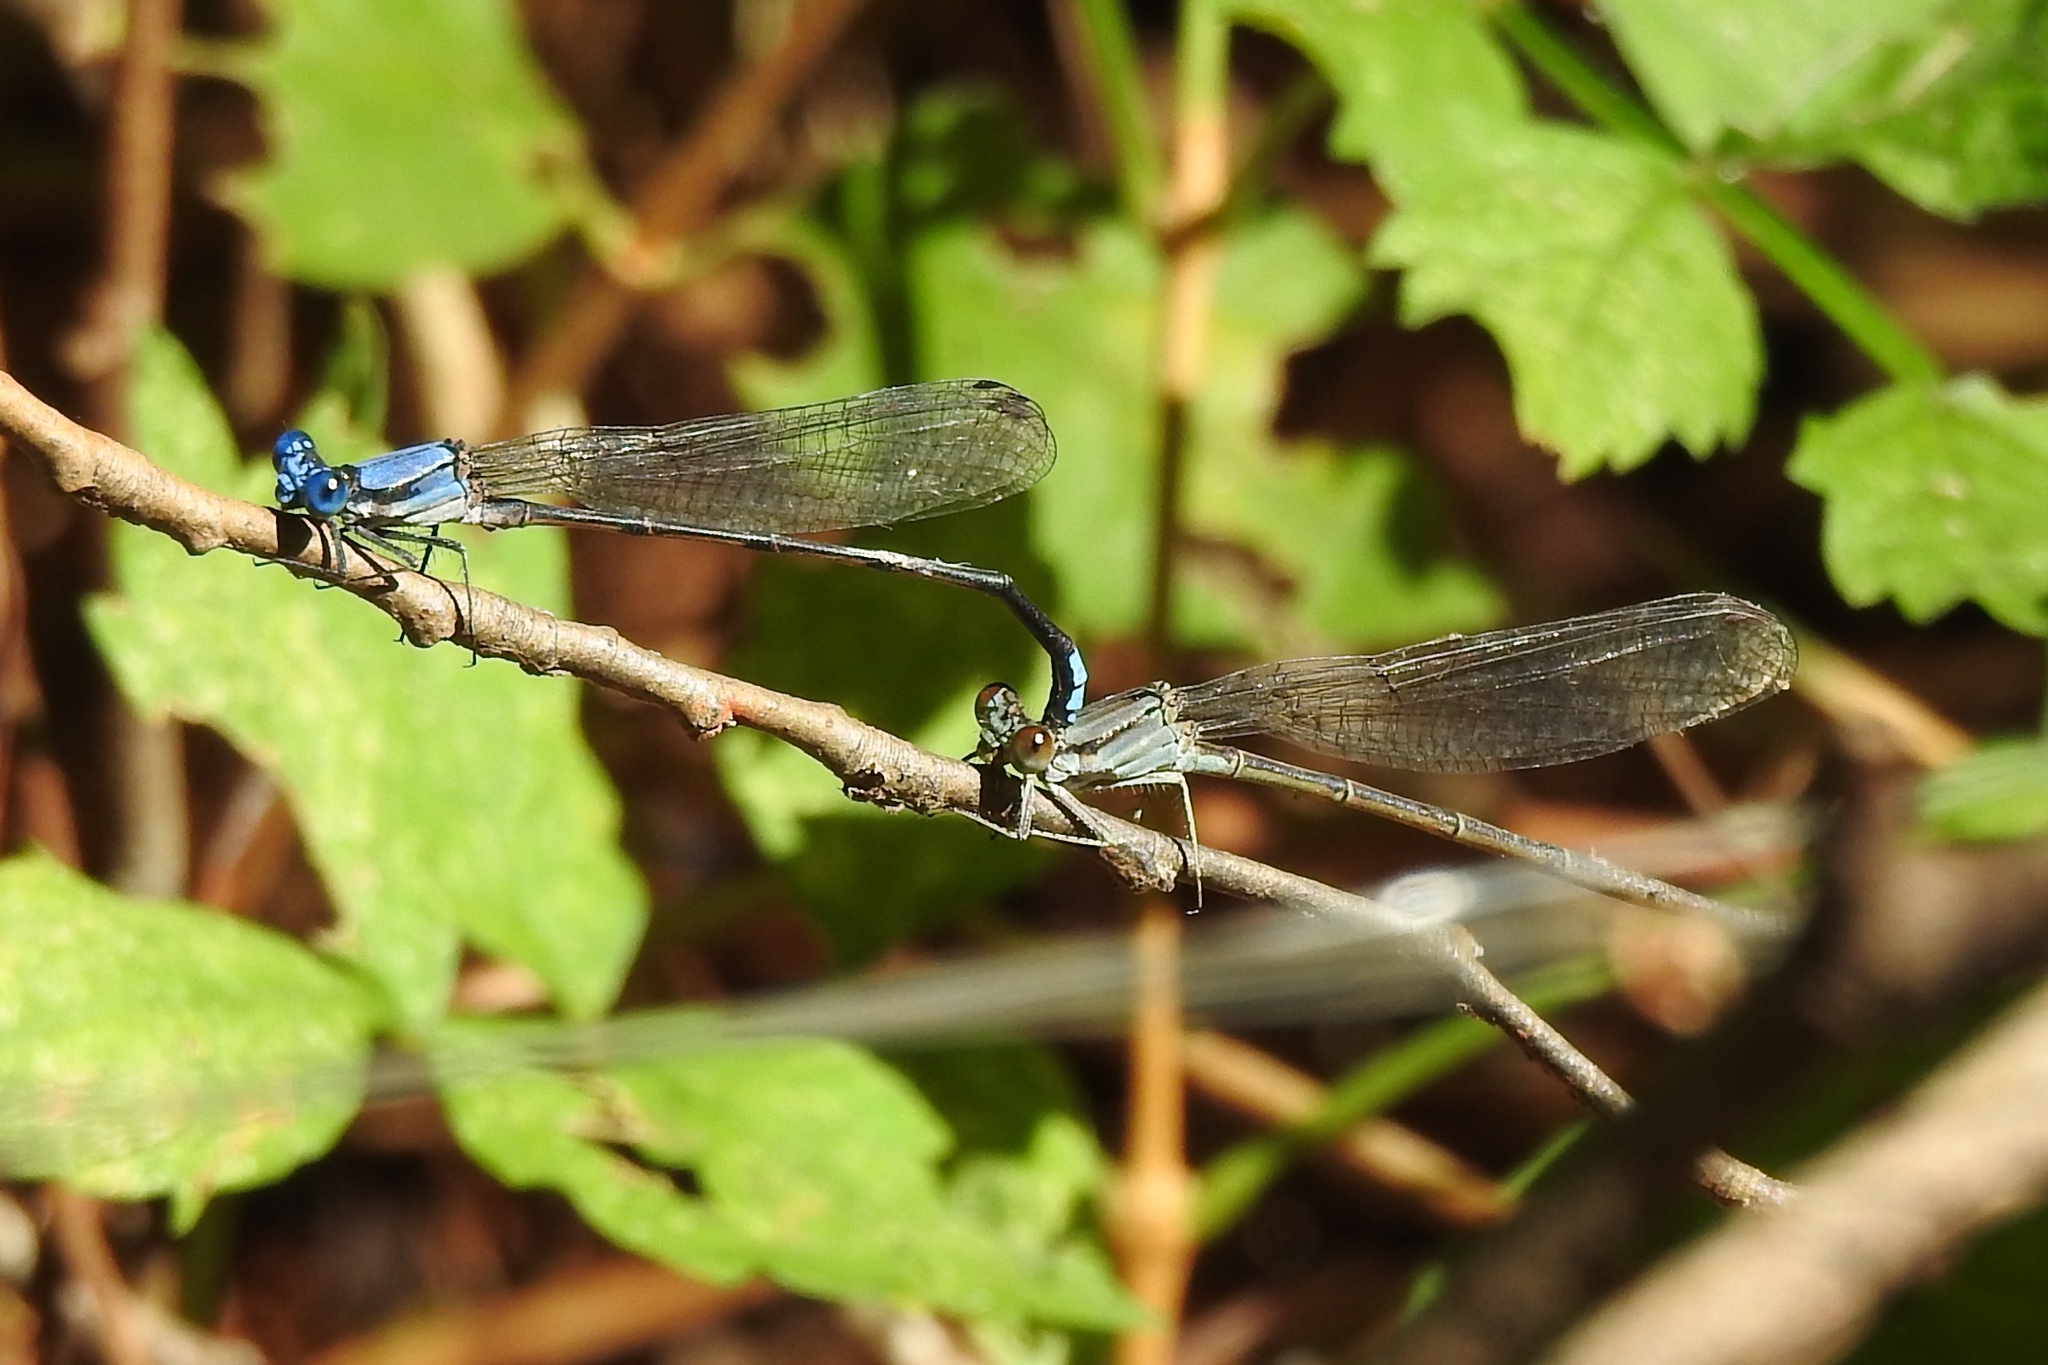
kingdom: Animalia
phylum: Arthropoda
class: Insecta
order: Odonata
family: Coenagrionidae
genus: Argia
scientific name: Argia apicalis
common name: Blue-fronted dancer
